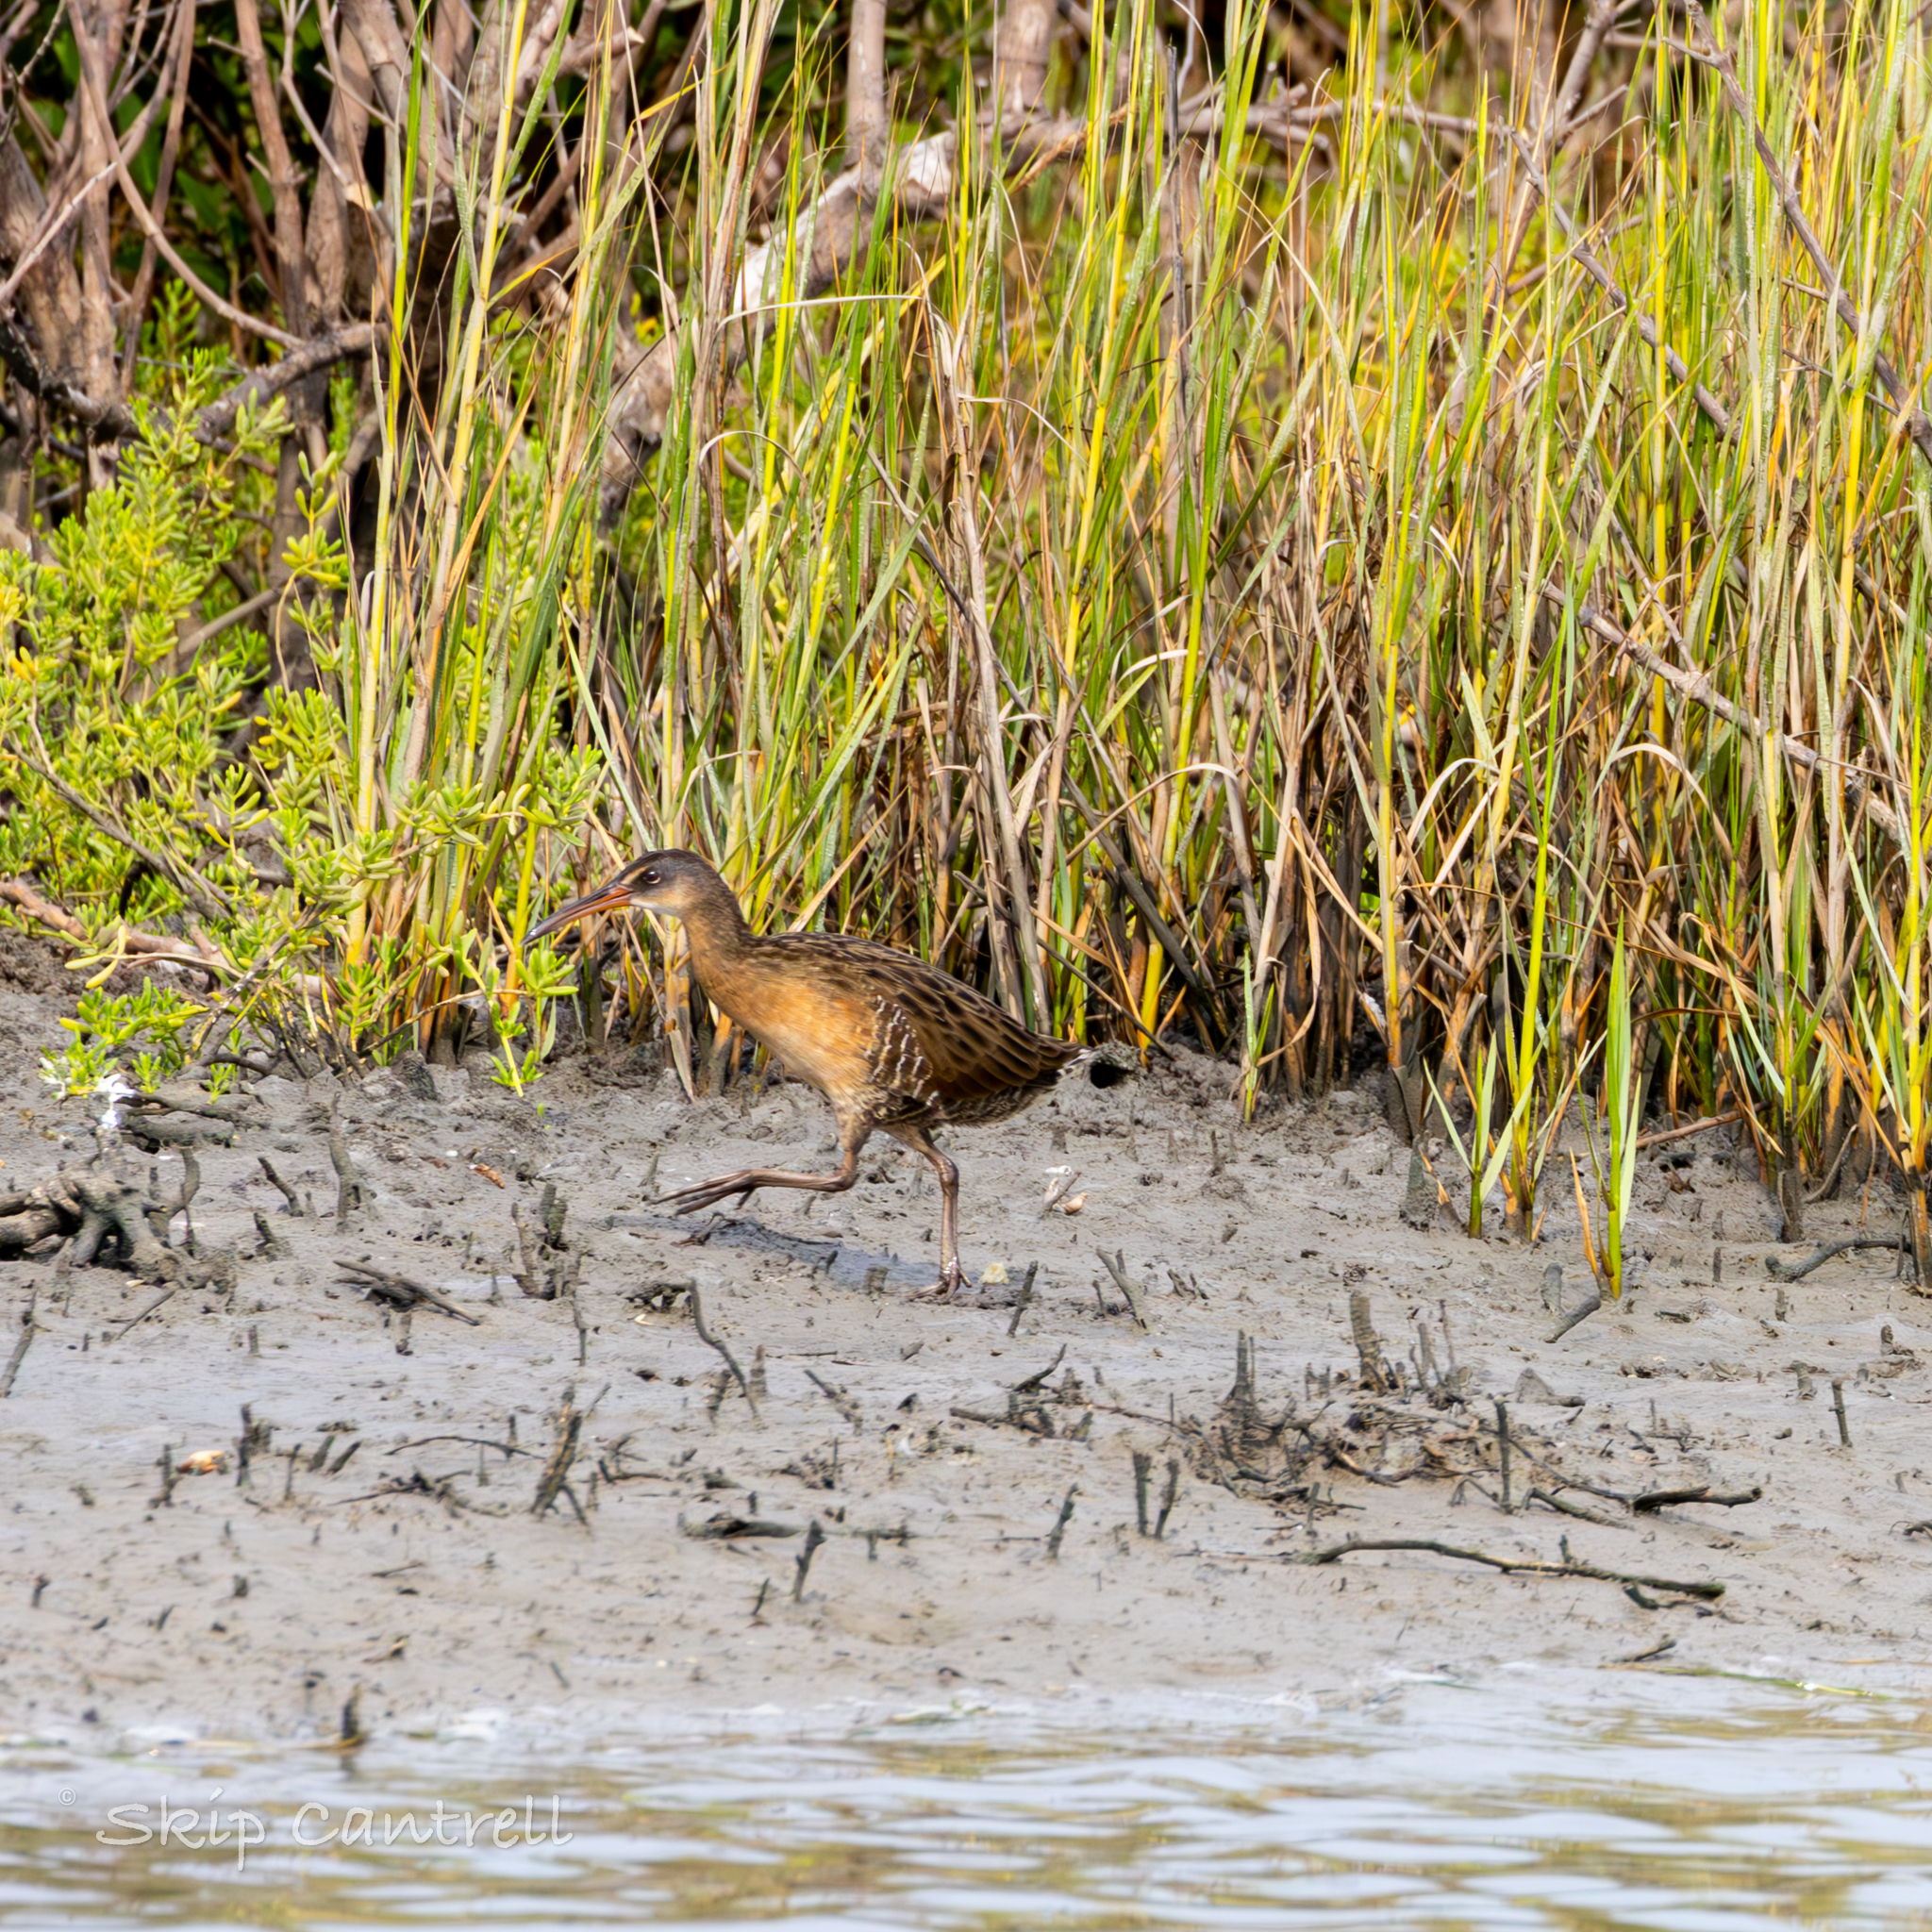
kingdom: Animalia
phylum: Chordata
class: Aves
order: Gruiformes
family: Rallidae
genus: Rallus
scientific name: Rallus crepitans
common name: Clapper rail
